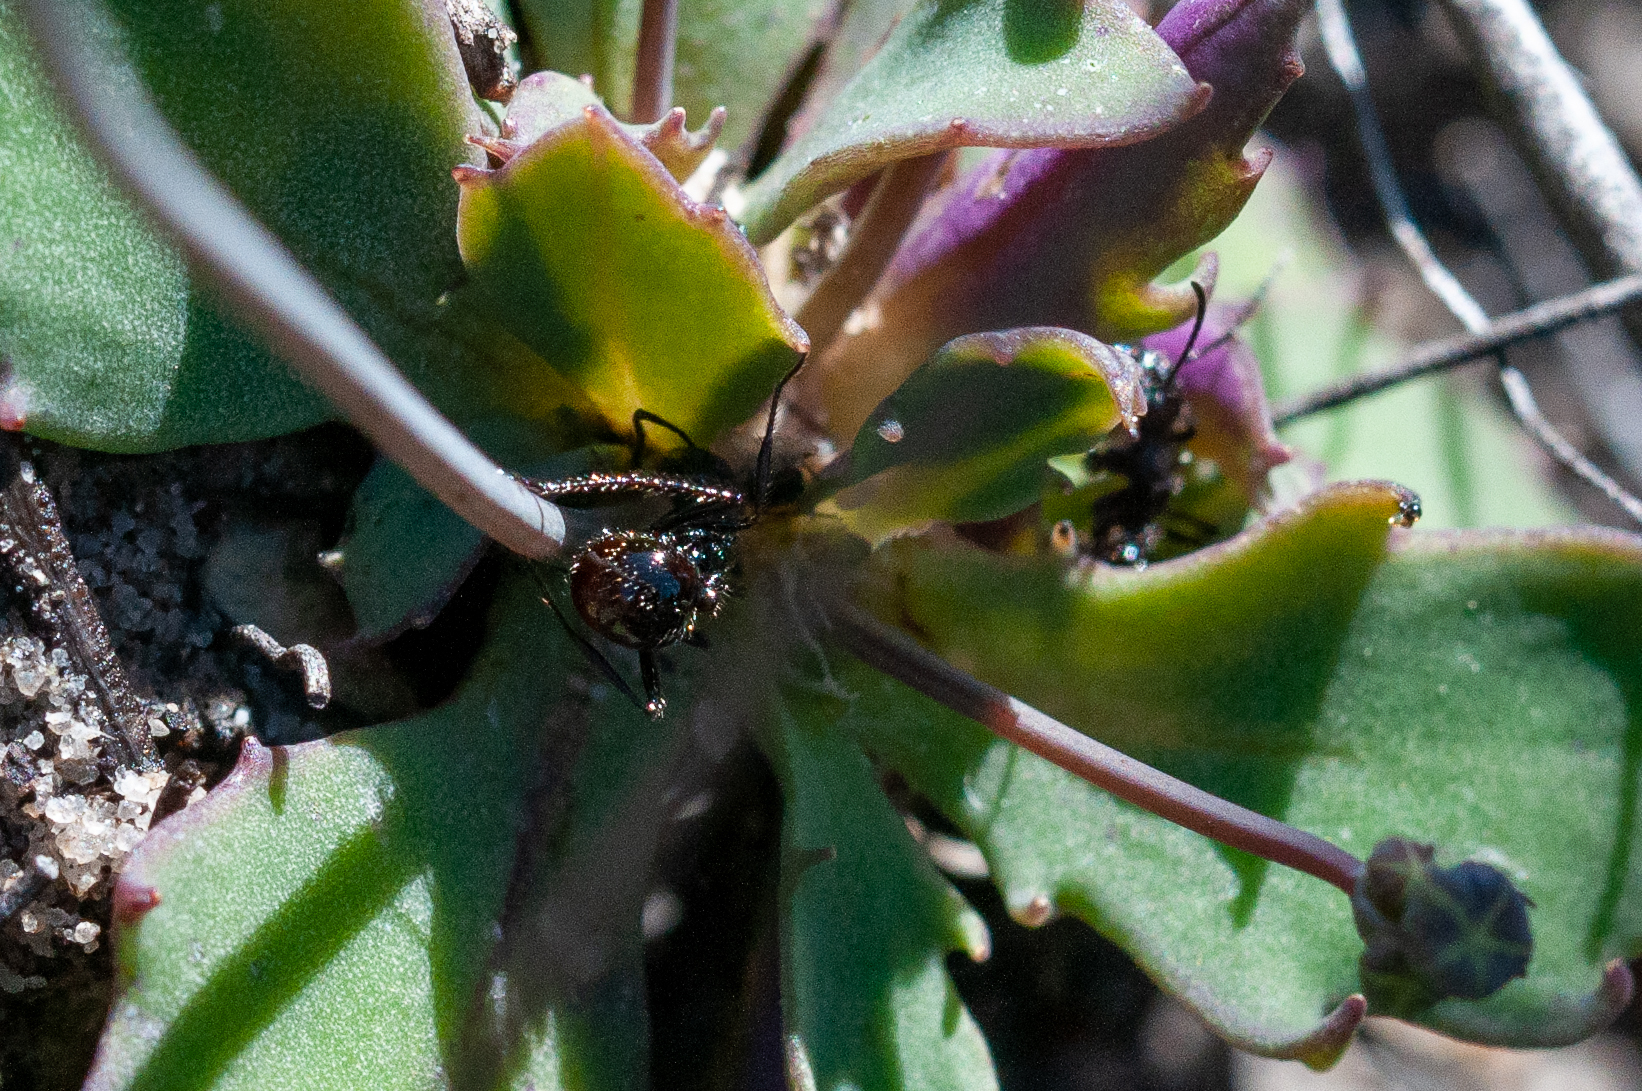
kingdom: Animalia
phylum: Arthropoda
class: Insecta
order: Hymenoptera
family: Formicidae
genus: Myrmicaria
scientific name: Myrmicaria nigra
